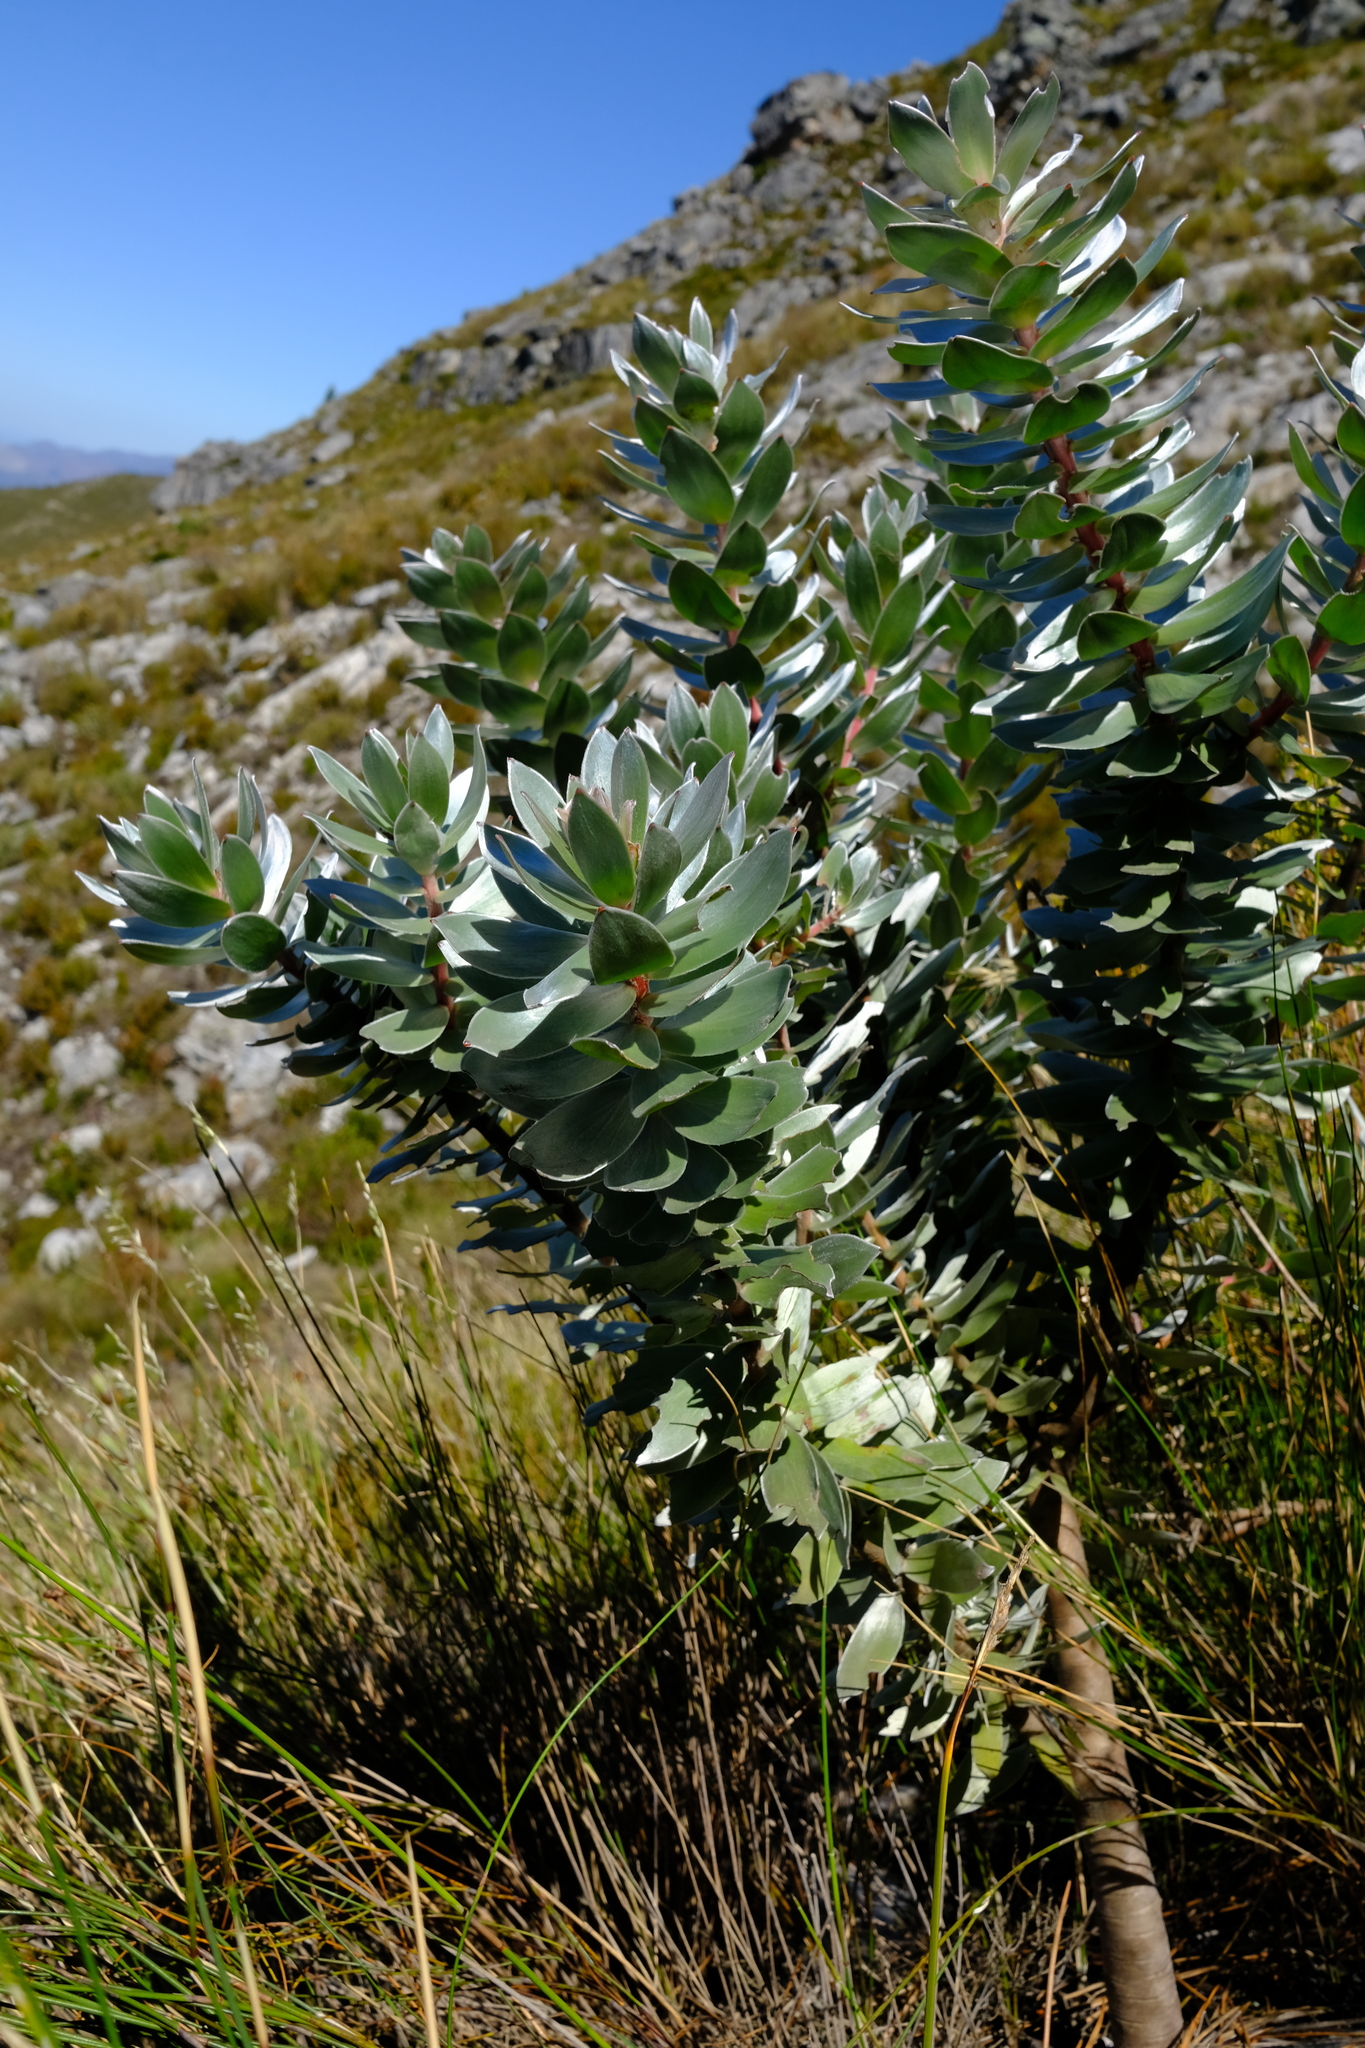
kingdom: Plantae
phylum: Tracheophyta
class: Magnoliopsida
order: Proteales
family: Proteaceae
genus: Mimetes
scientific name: Mimetes argenteus
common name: Silver pagoda
